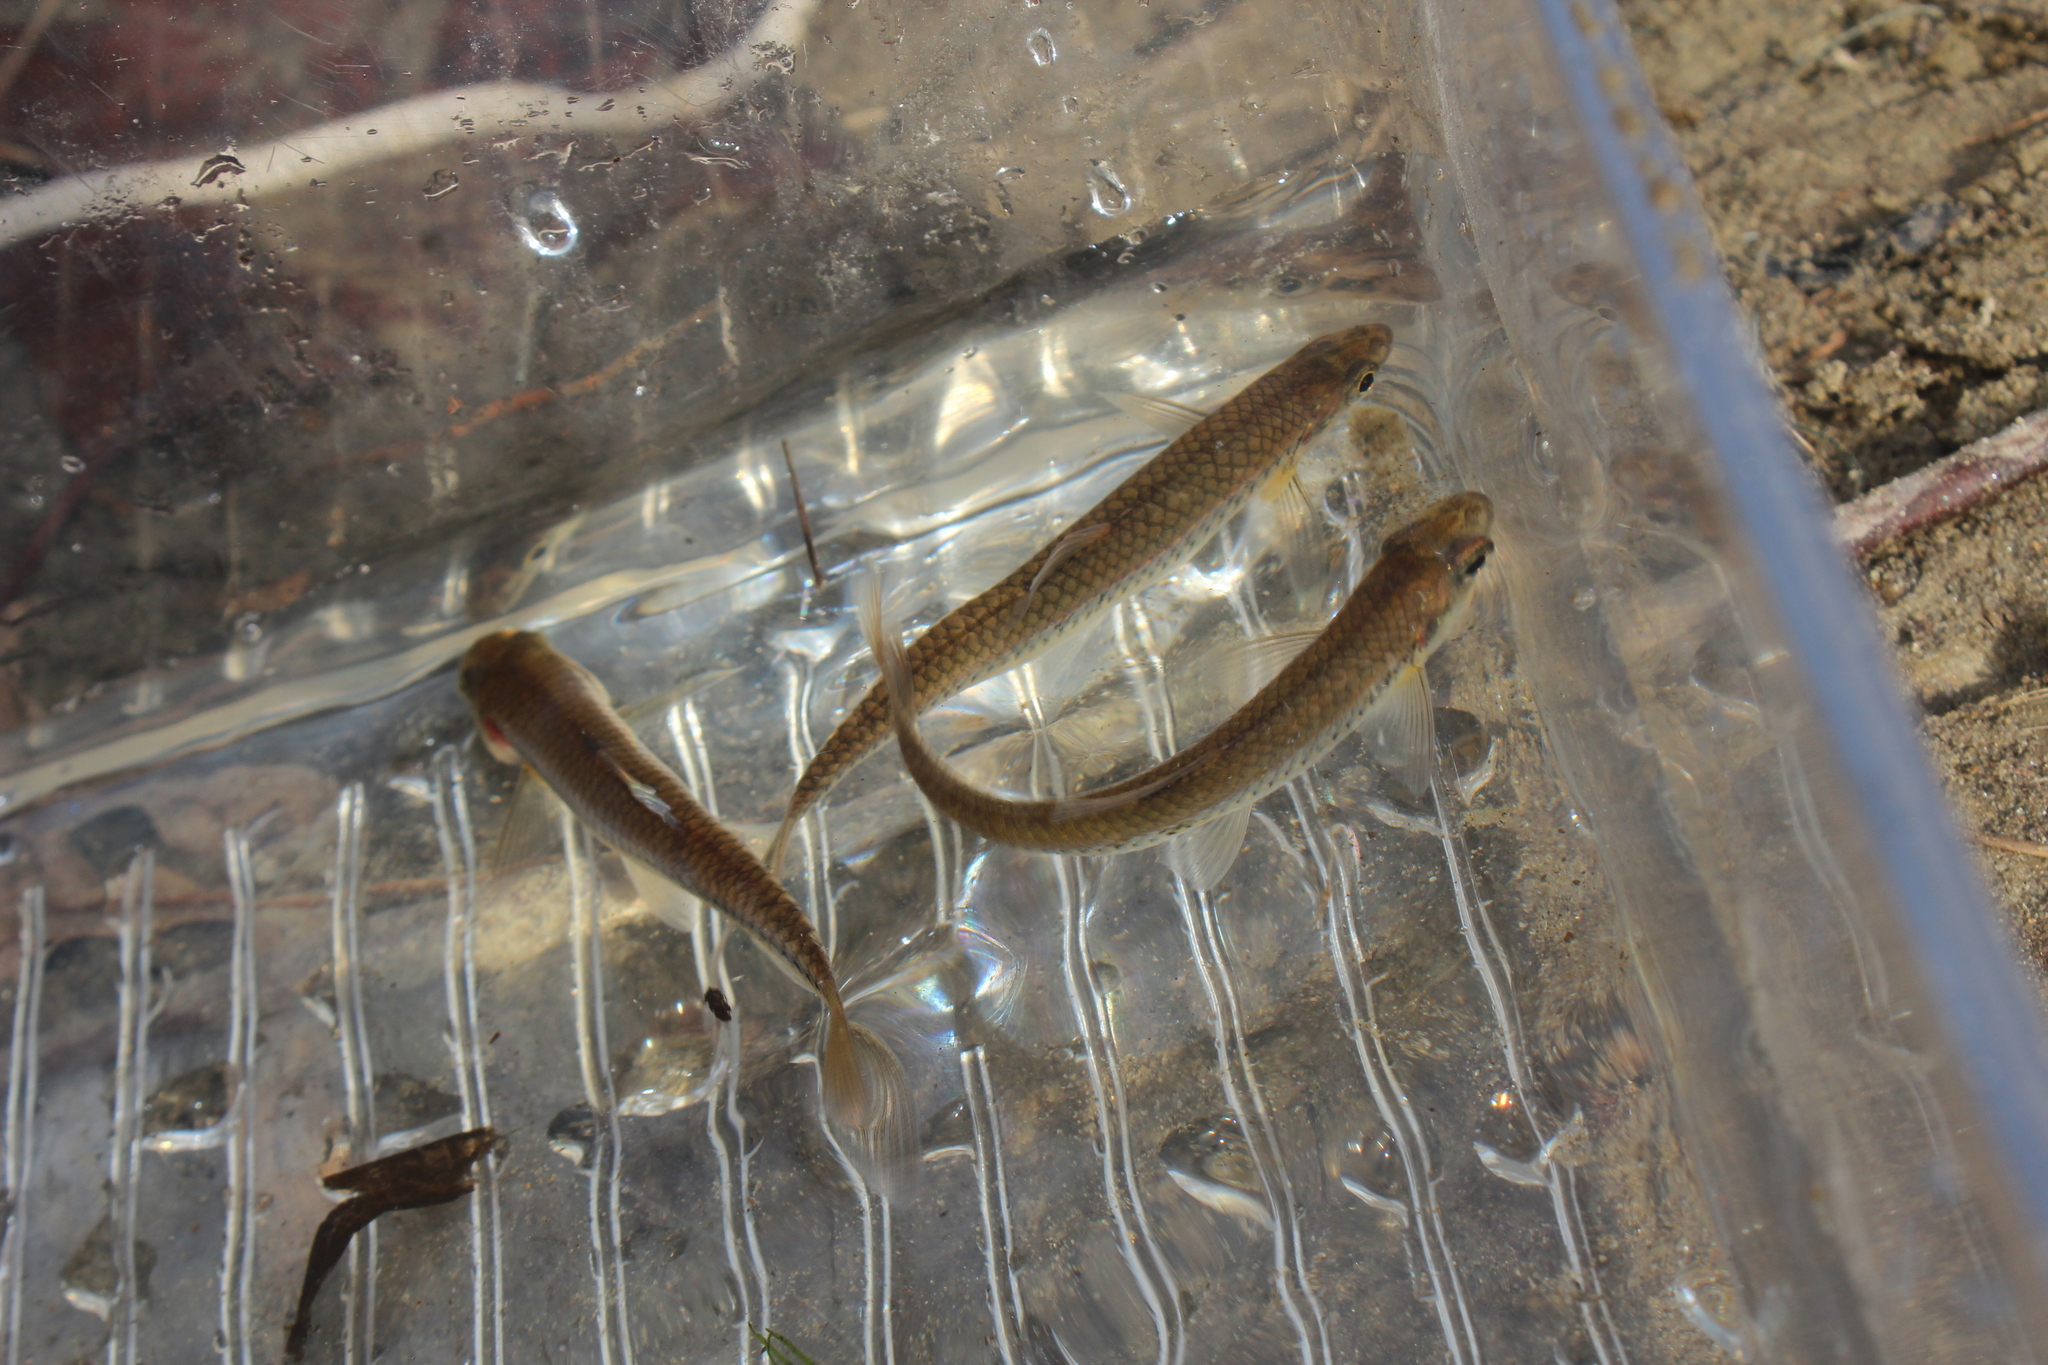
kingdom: Animalia
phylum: Chordata
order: Cypriniformes
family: Cyprinidae
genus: Notropis
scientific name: Notropis
